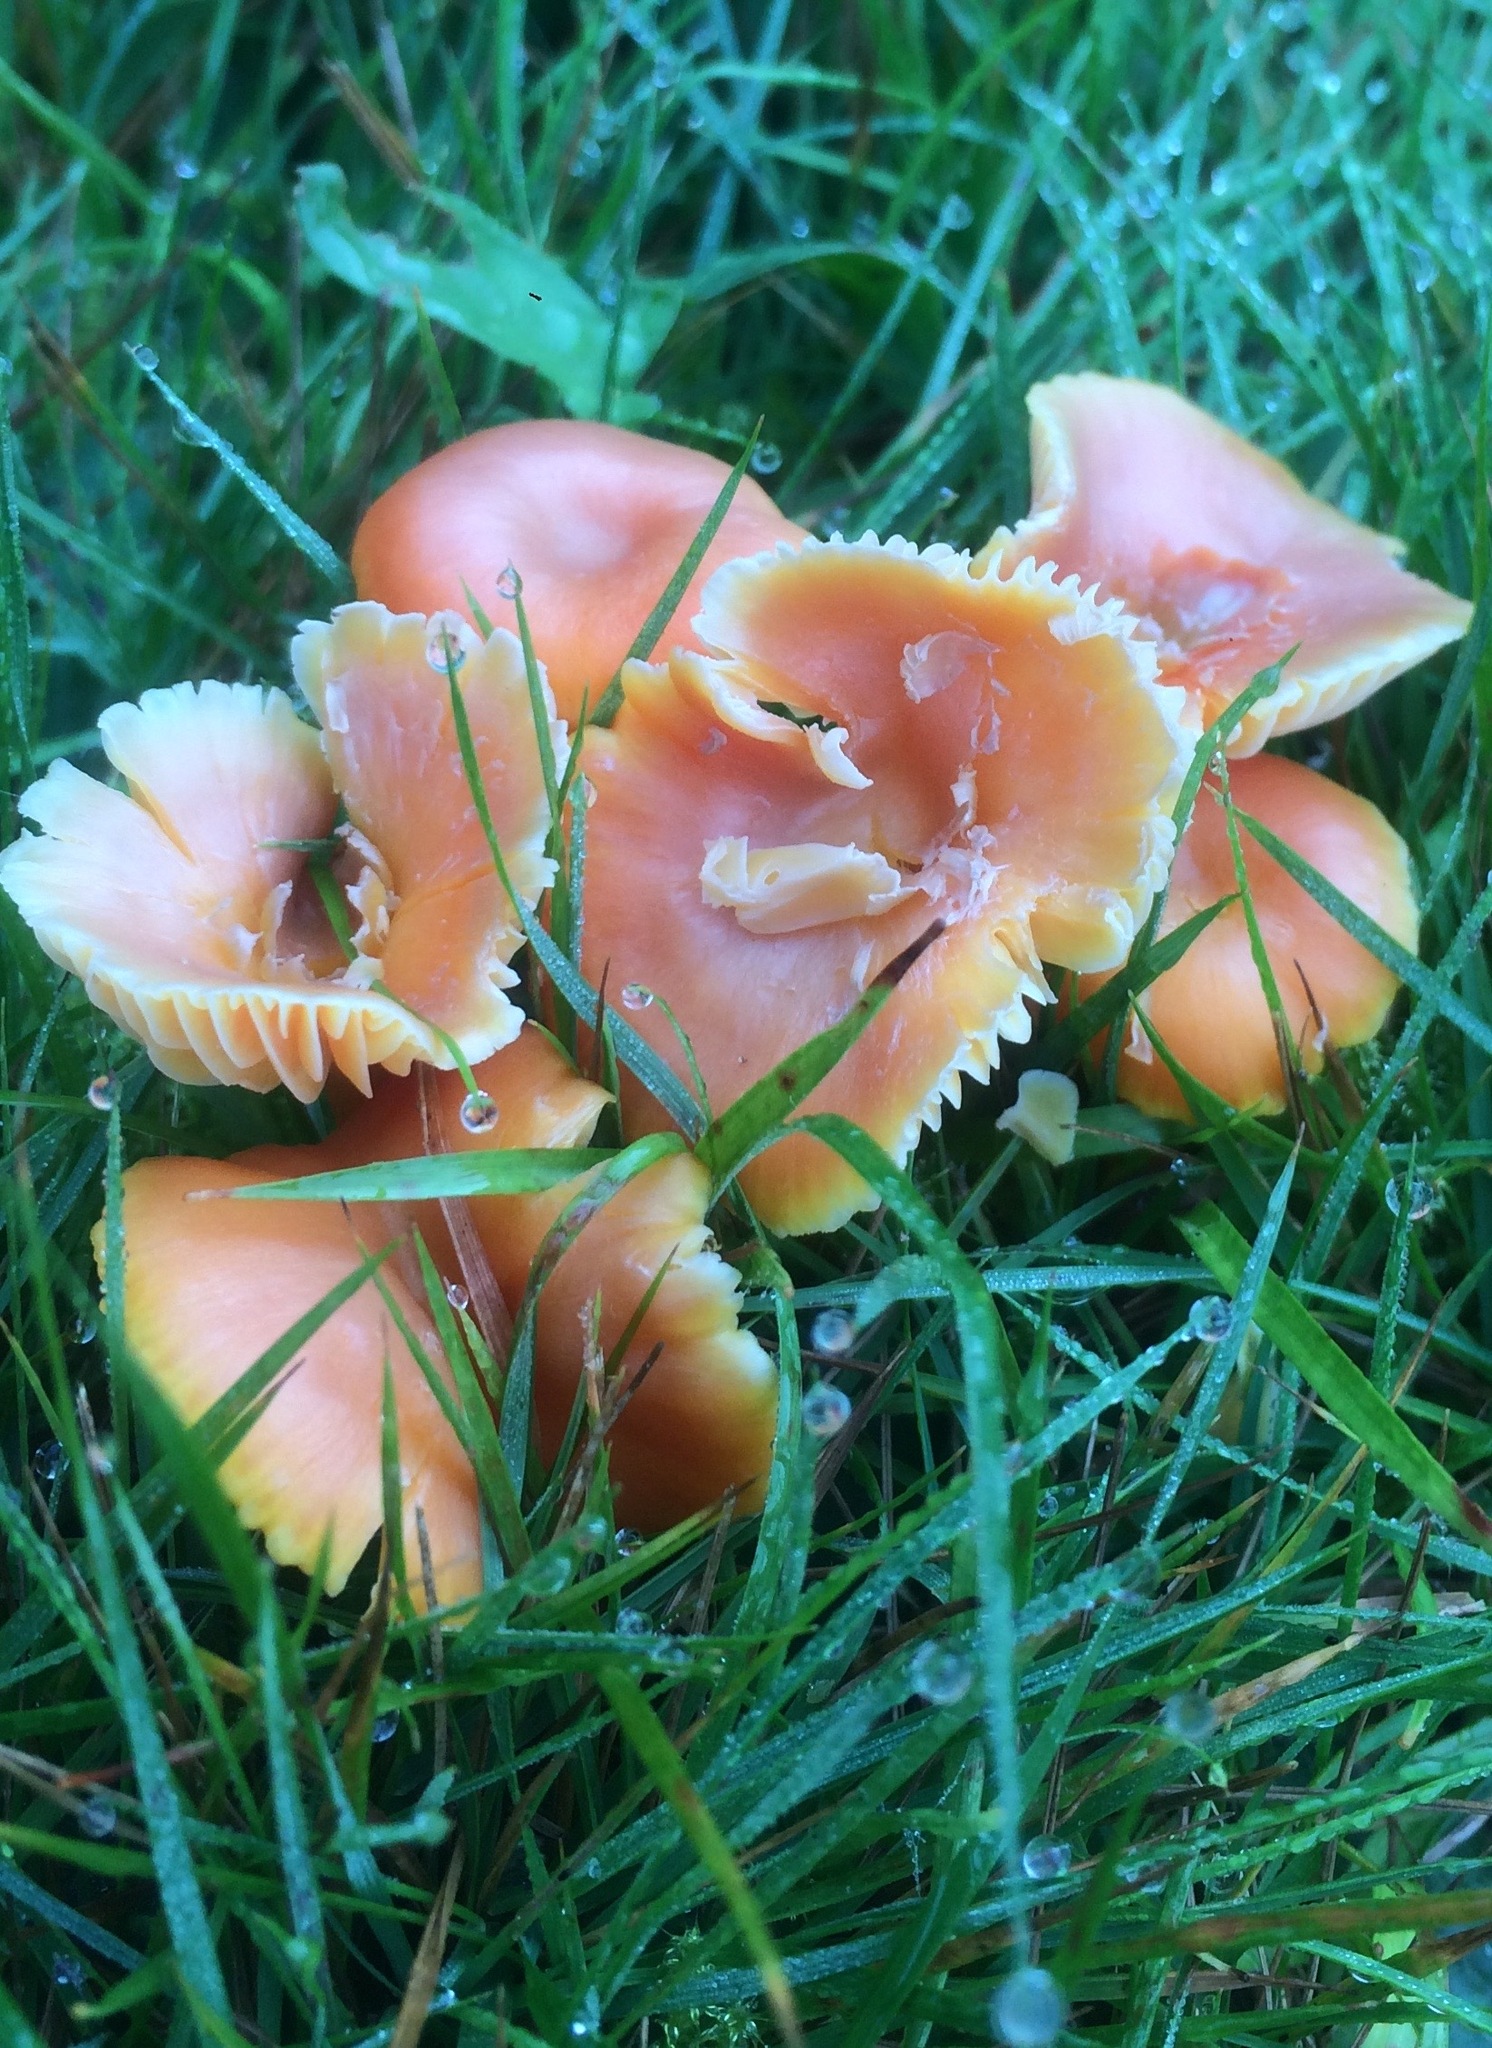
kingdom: Fungi
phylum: Basidiomycota
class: Agaricomycetes
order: Agaricales
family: Hygrophoraceae
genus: Hygrocybe
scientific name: Hygrocybe reidii
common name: Honey waxcap
